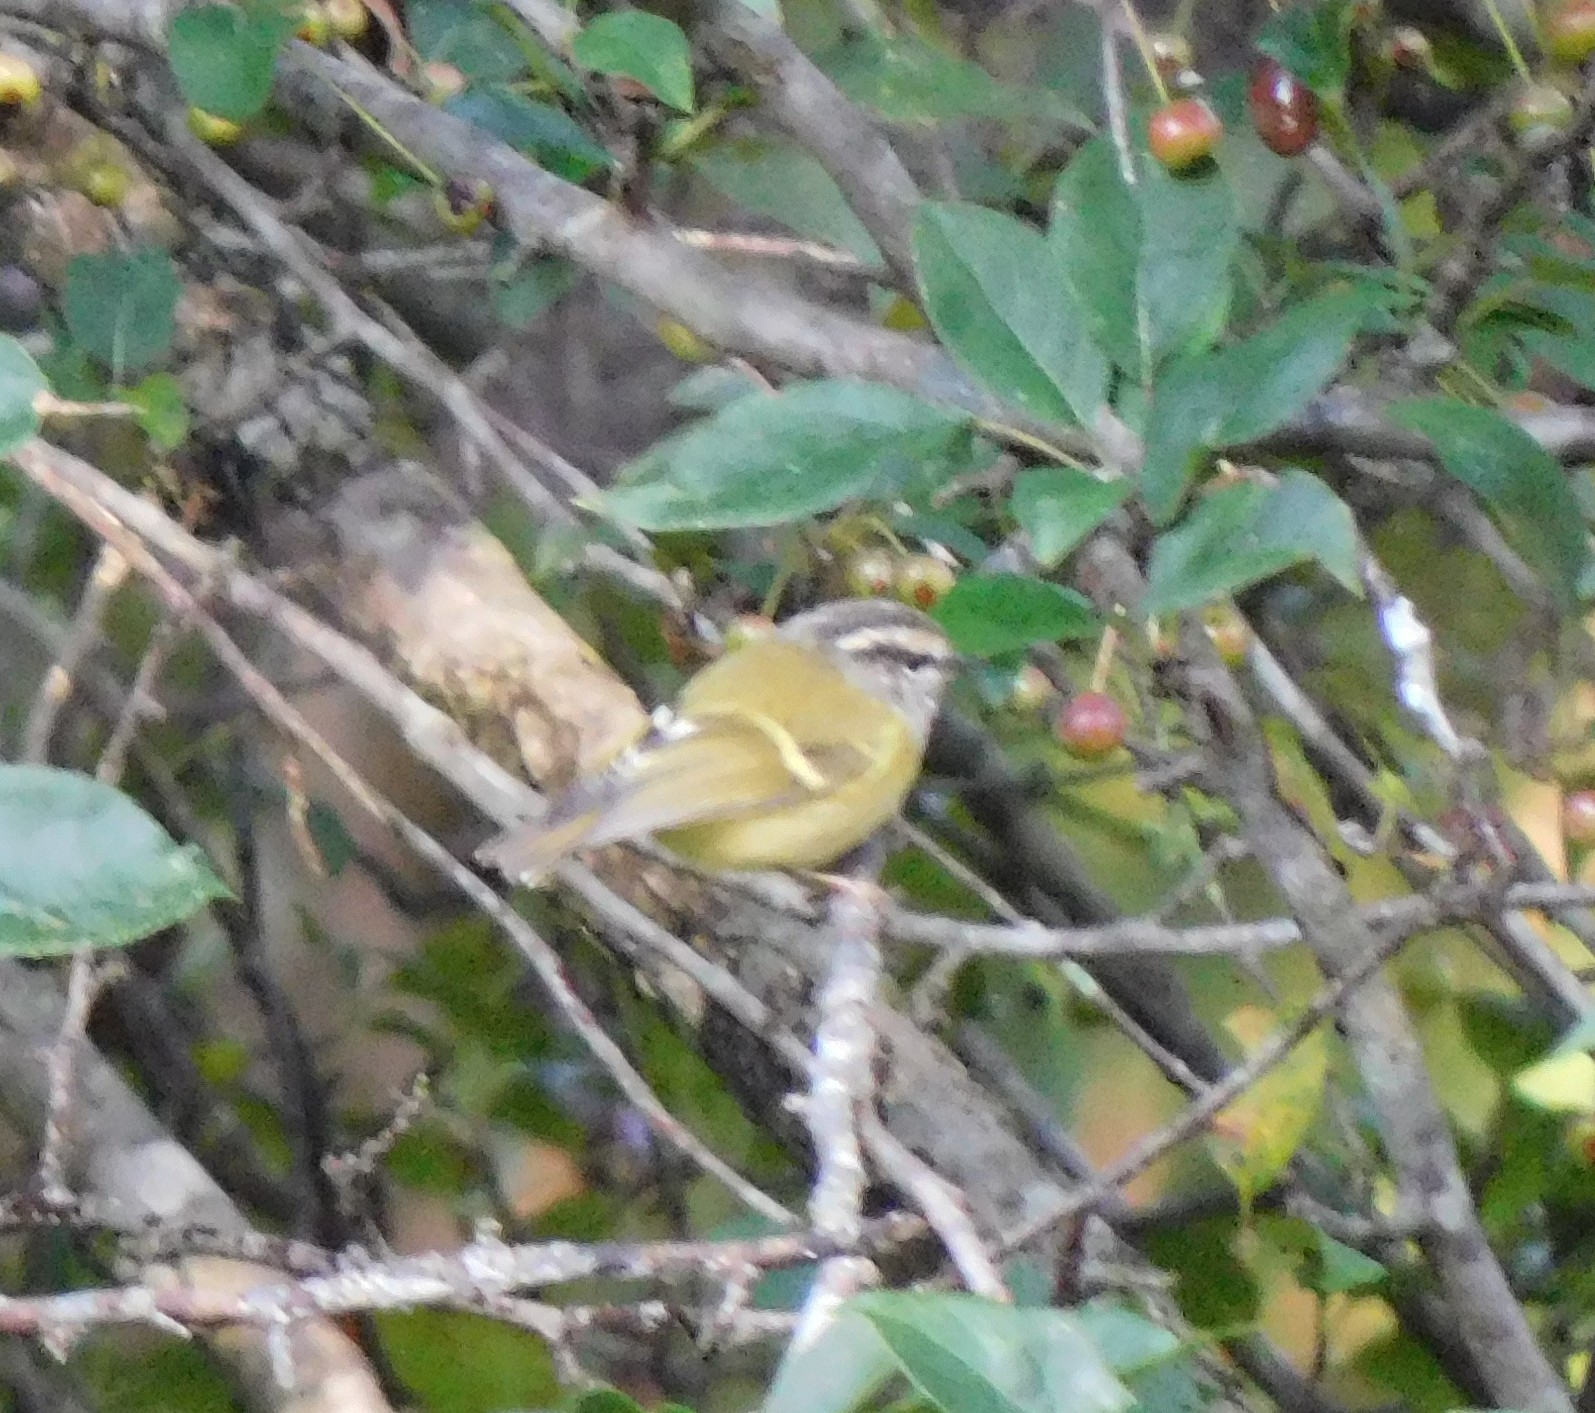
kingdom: Animalia
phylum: Chordata
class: Aves
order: Passeriformes
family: Phylloscopidae
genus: Phylloscopus
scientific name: Phylloscopus maculipennis
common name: Ashy-throated warbler
